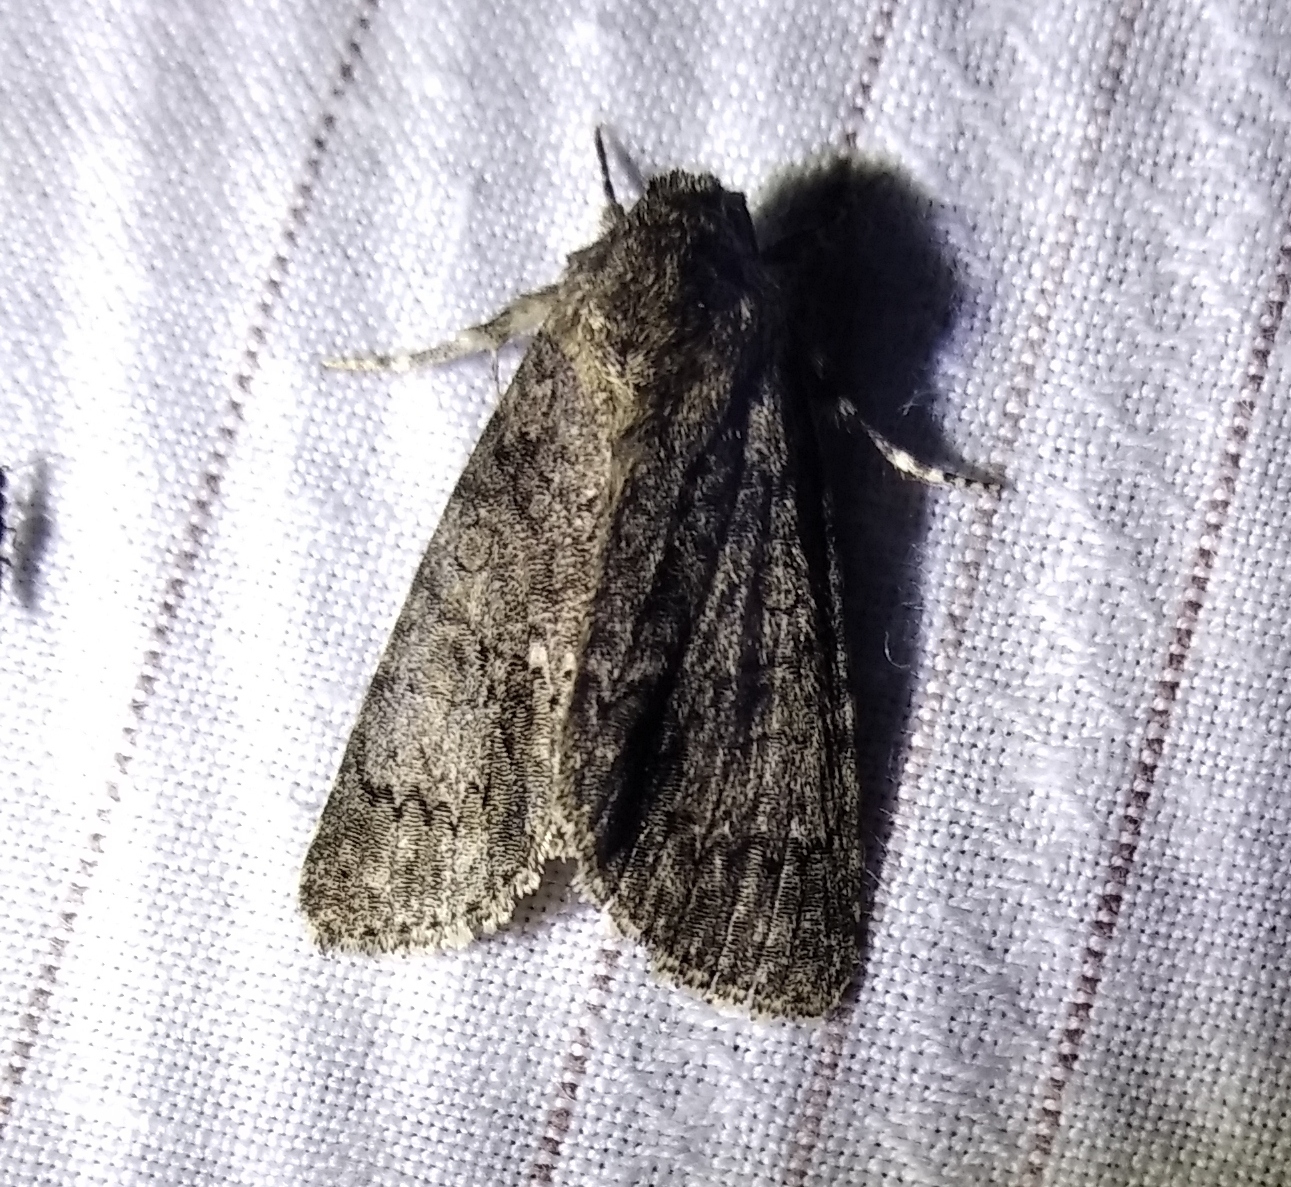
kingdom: Animalia
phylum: Arthropoda
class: Insecta
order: Lepidoptera
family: Noctuidae
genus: Acronicta
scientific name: Acronicta rumicis
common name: Knot grass
